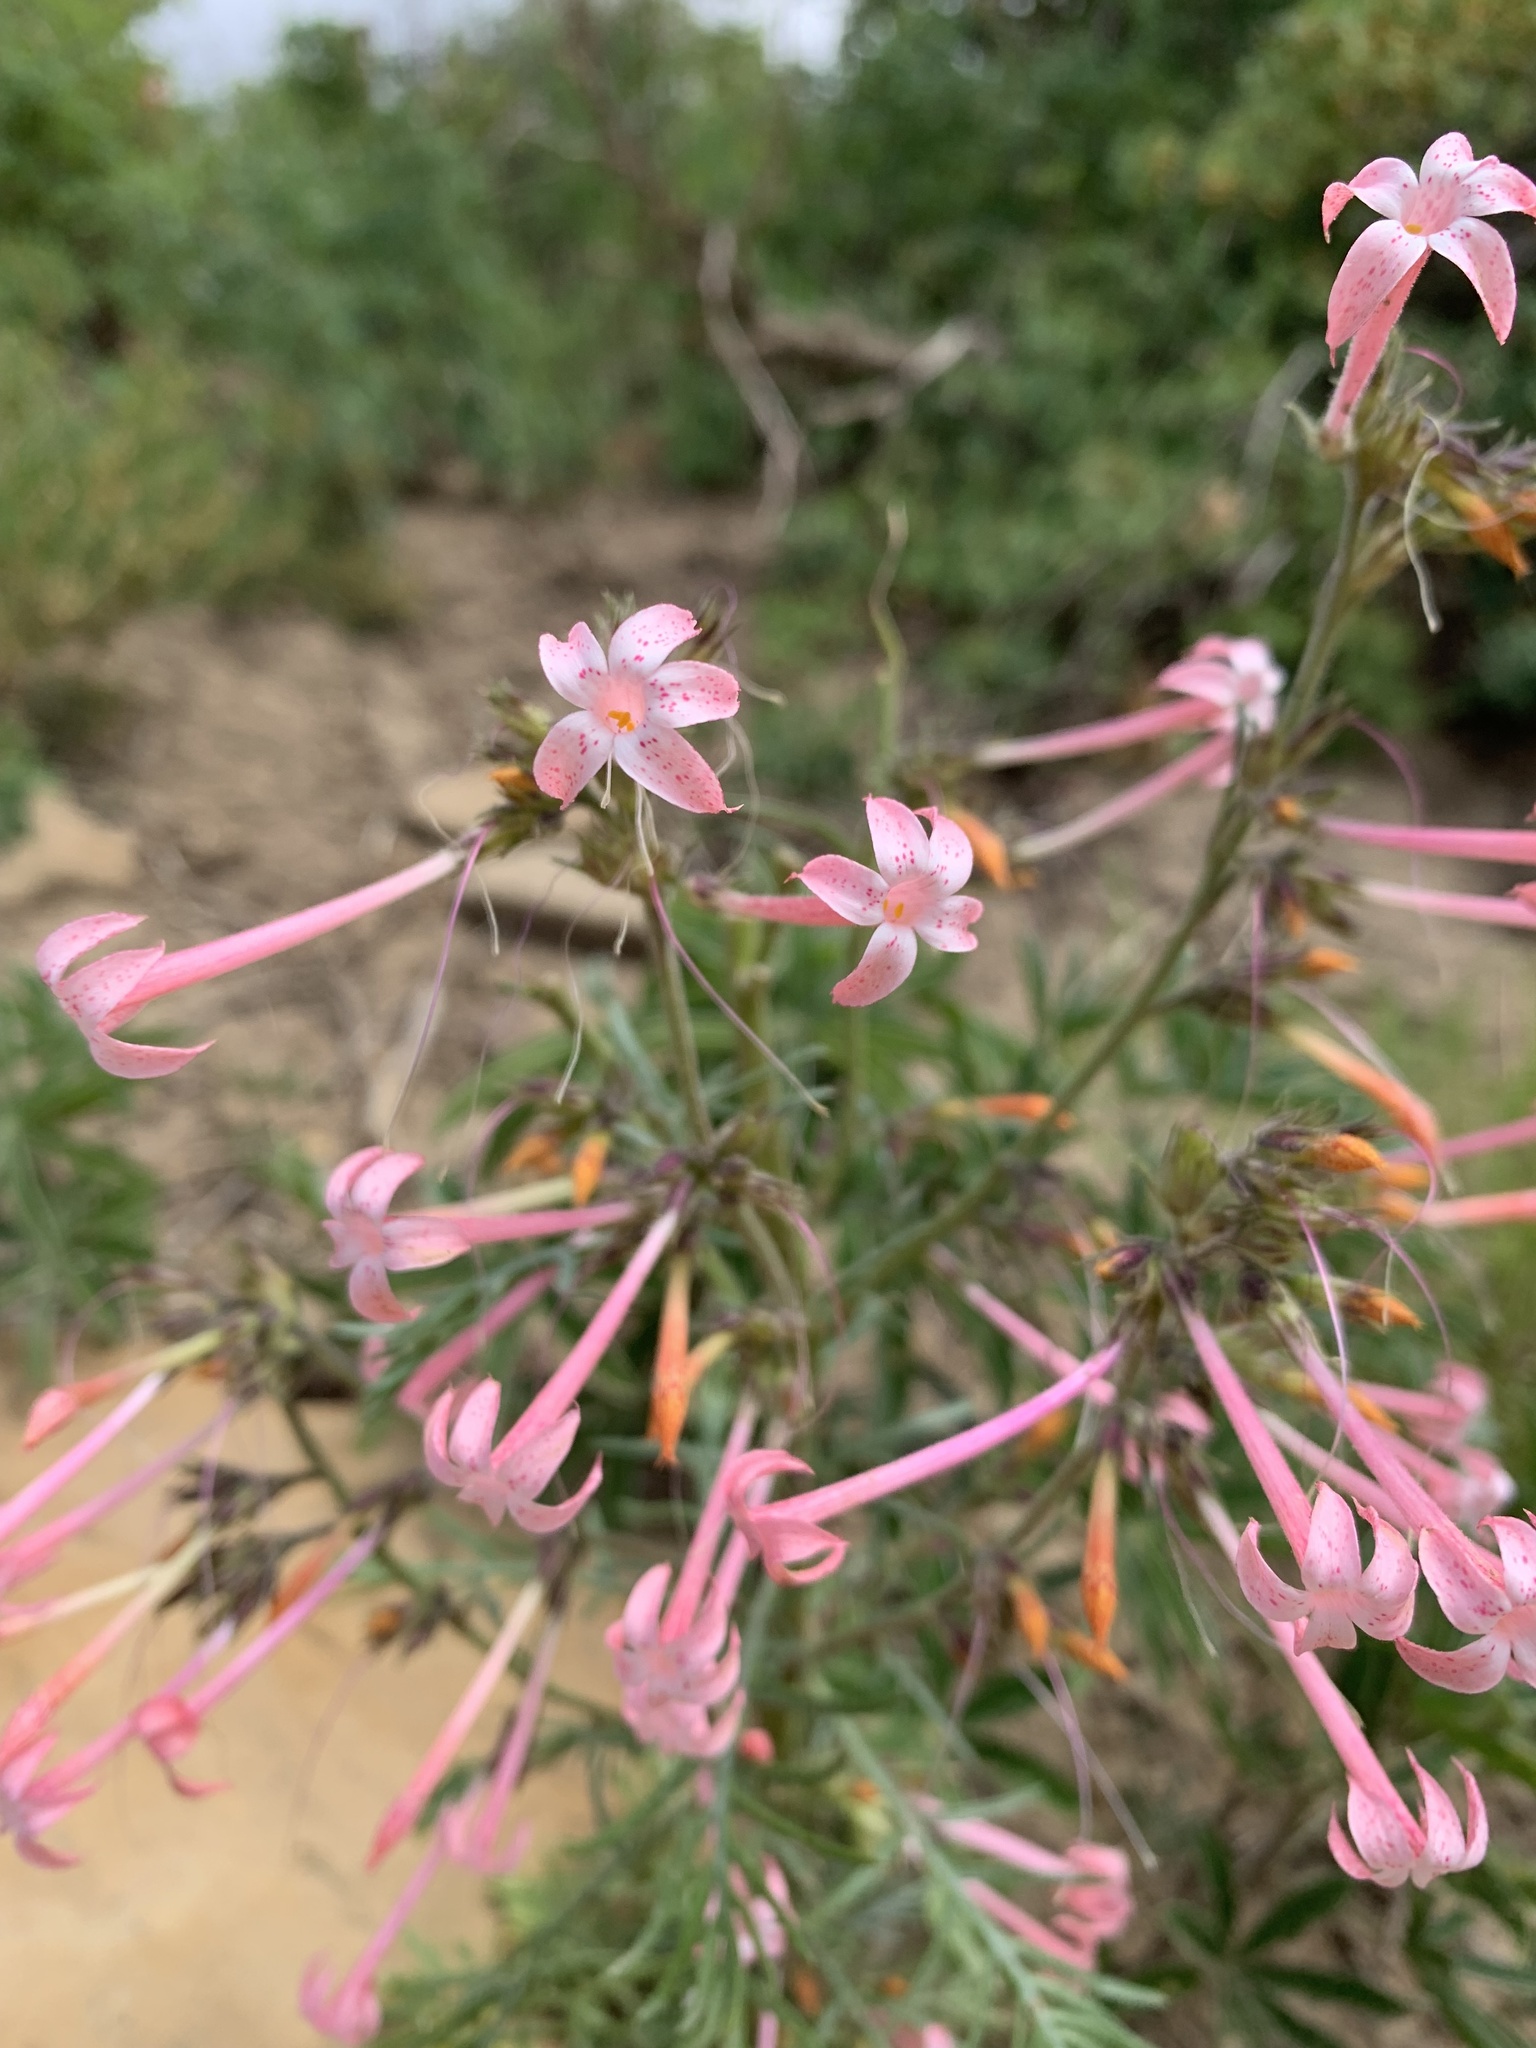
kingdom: Plantae
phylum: Tracheophyta
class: Magnoliopsida
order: Ericales
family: Polemoniaceae
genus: Ipomopsis
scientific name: Ipomopsis tenuituba
